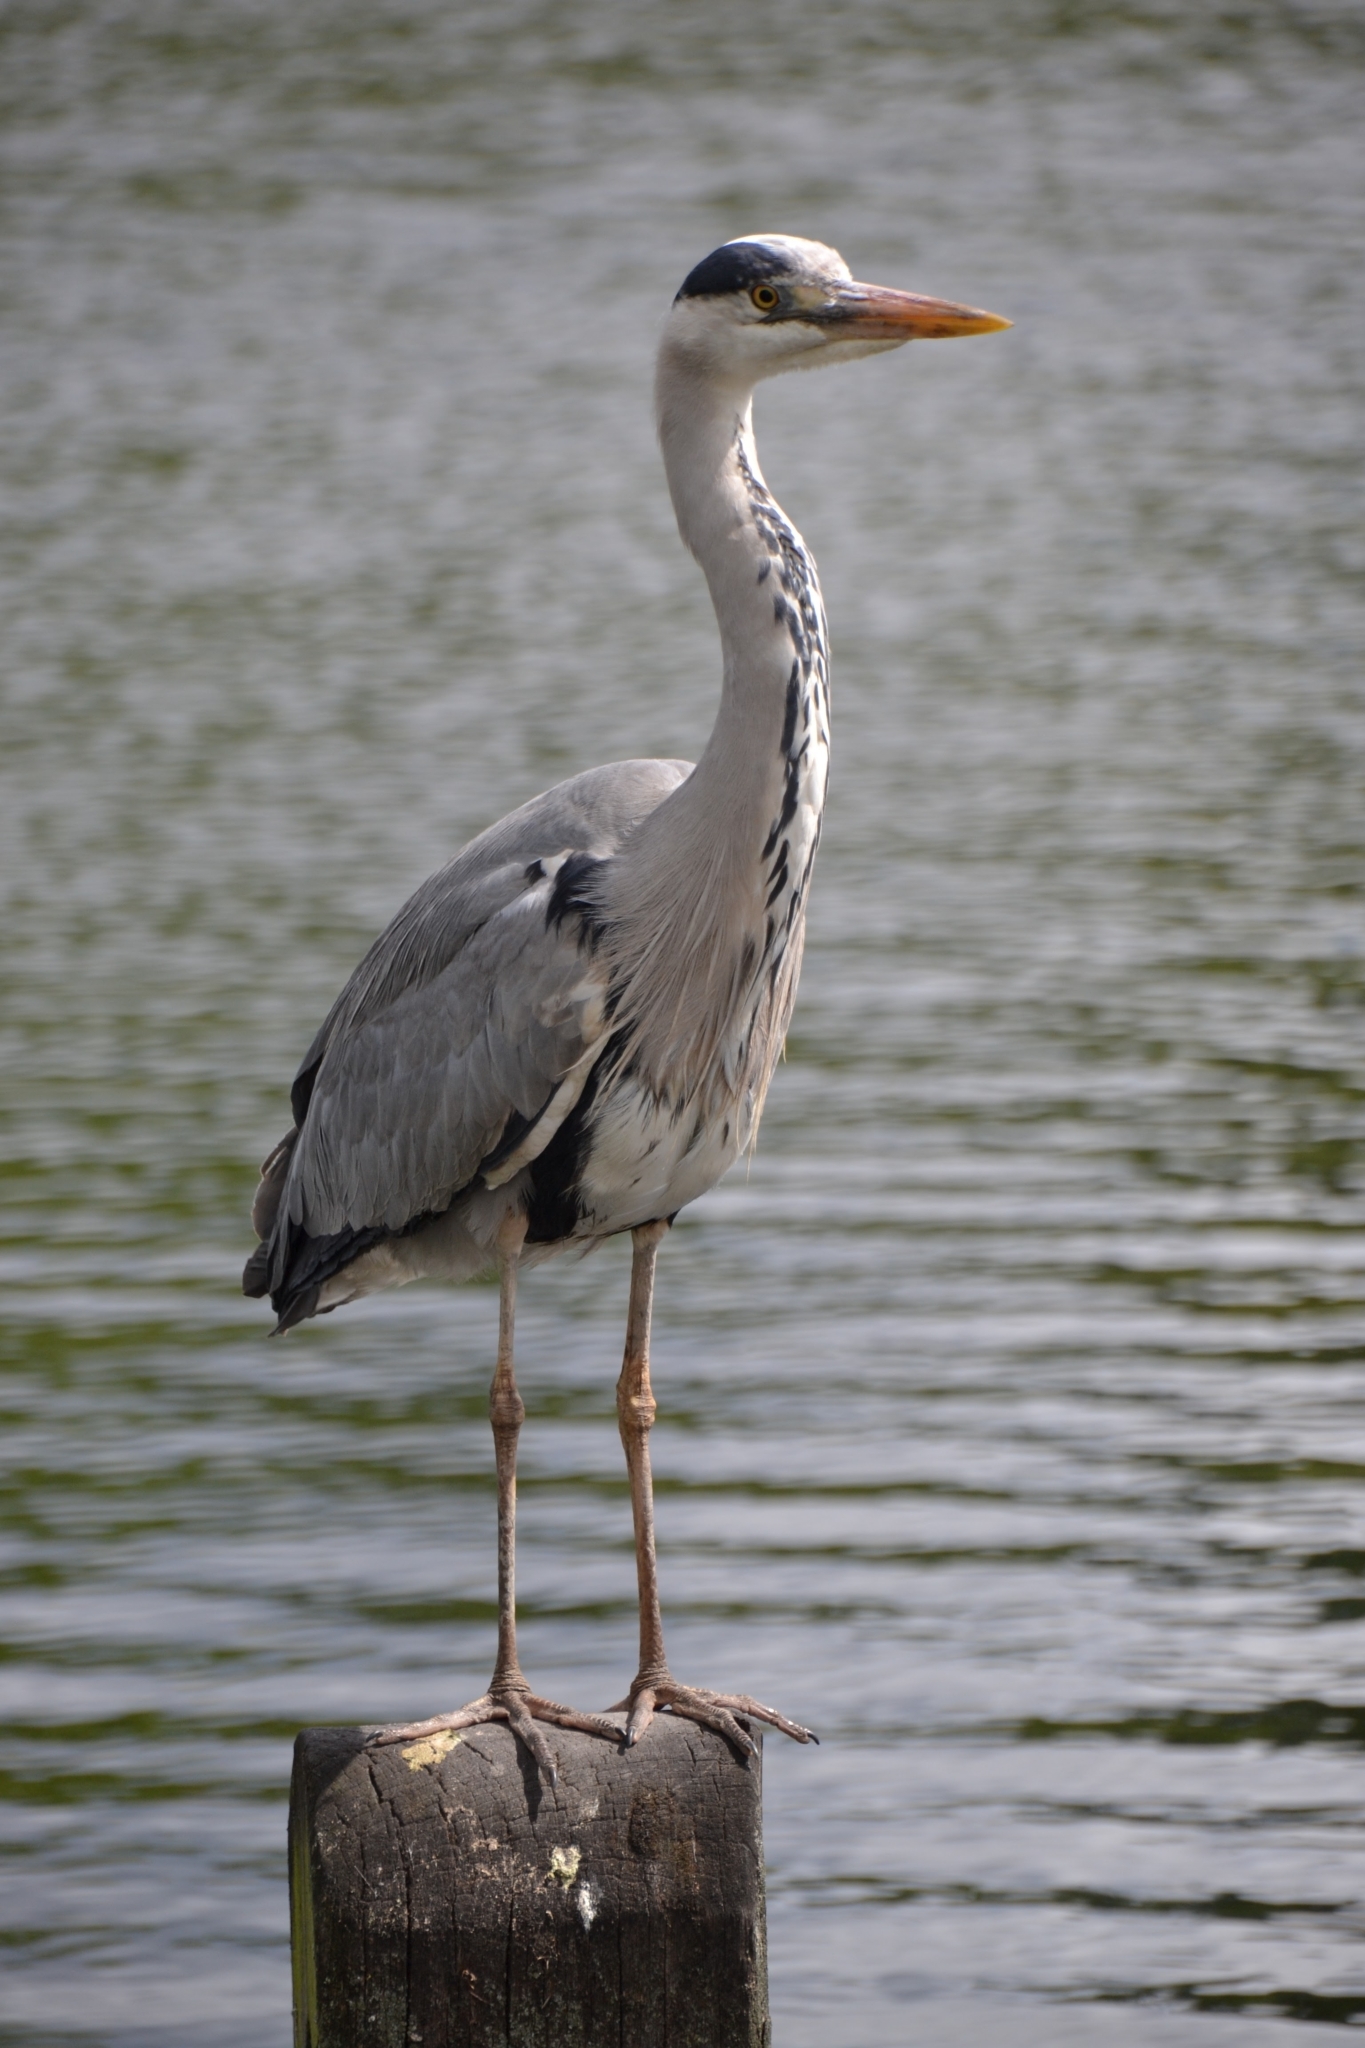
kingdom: Animalia
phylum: Chordata
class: Aves
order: Pelecaniformes
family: Ardeidae
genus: Ardea
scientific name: Ardea cinerea
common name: Grey heron
